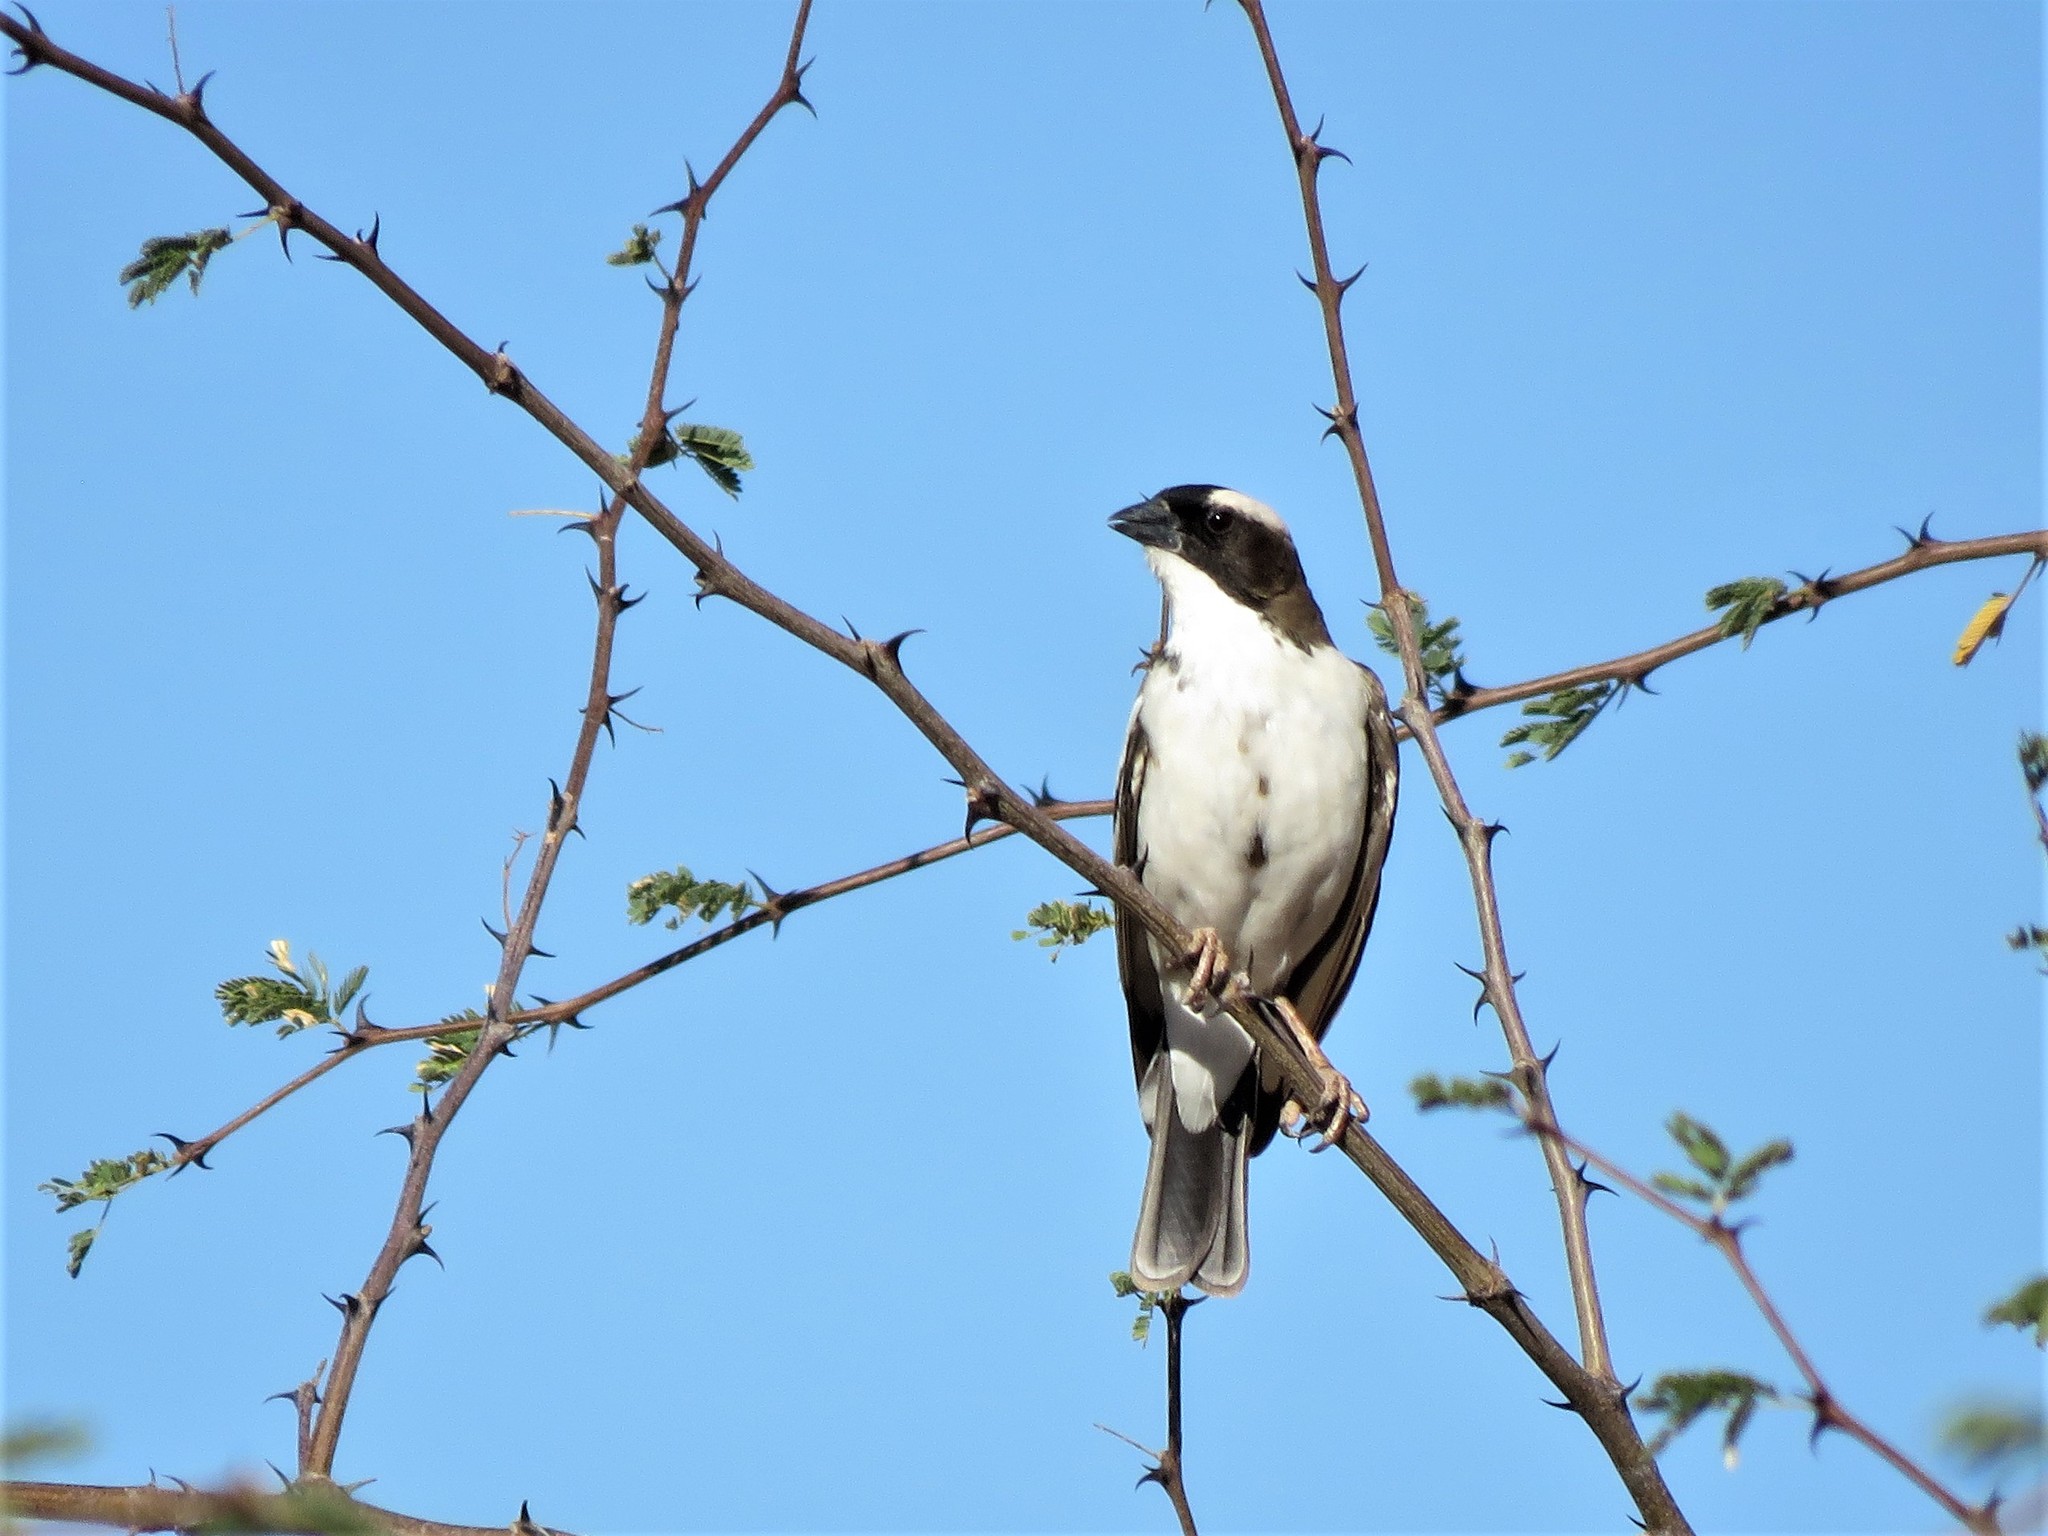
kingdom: Animalia
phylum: Chordata
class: Aves
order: Passeriformes
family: Passeridae
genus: Plocepasser
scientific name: Plocepasser mahali
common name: White-browed sparrow-weaver
